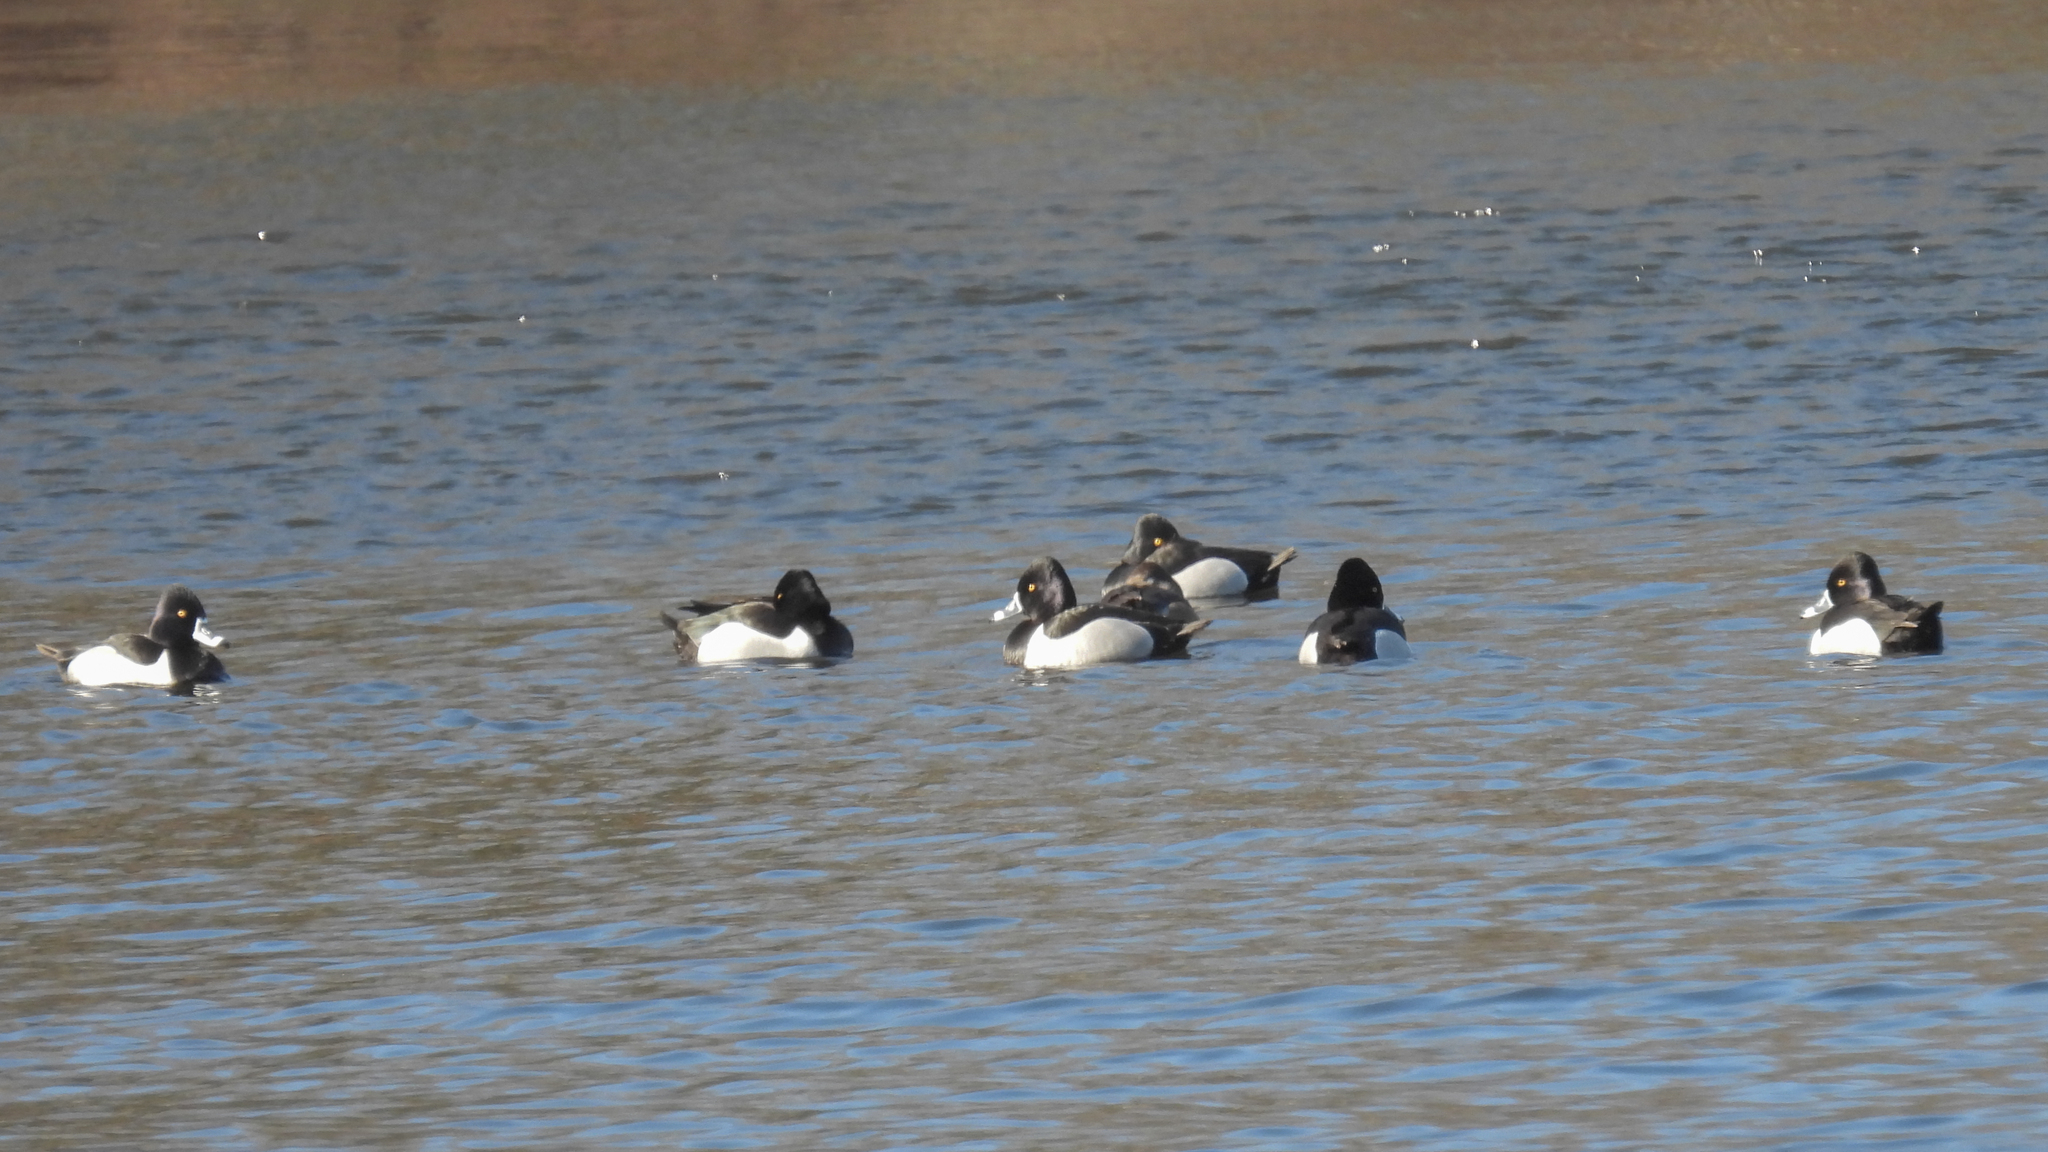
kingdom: Animalia
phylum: Chordata
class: Aves
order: Anseriformes
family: Anatidae
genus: Aythya
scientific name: Aythya collaris
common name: Ring-necked duck
